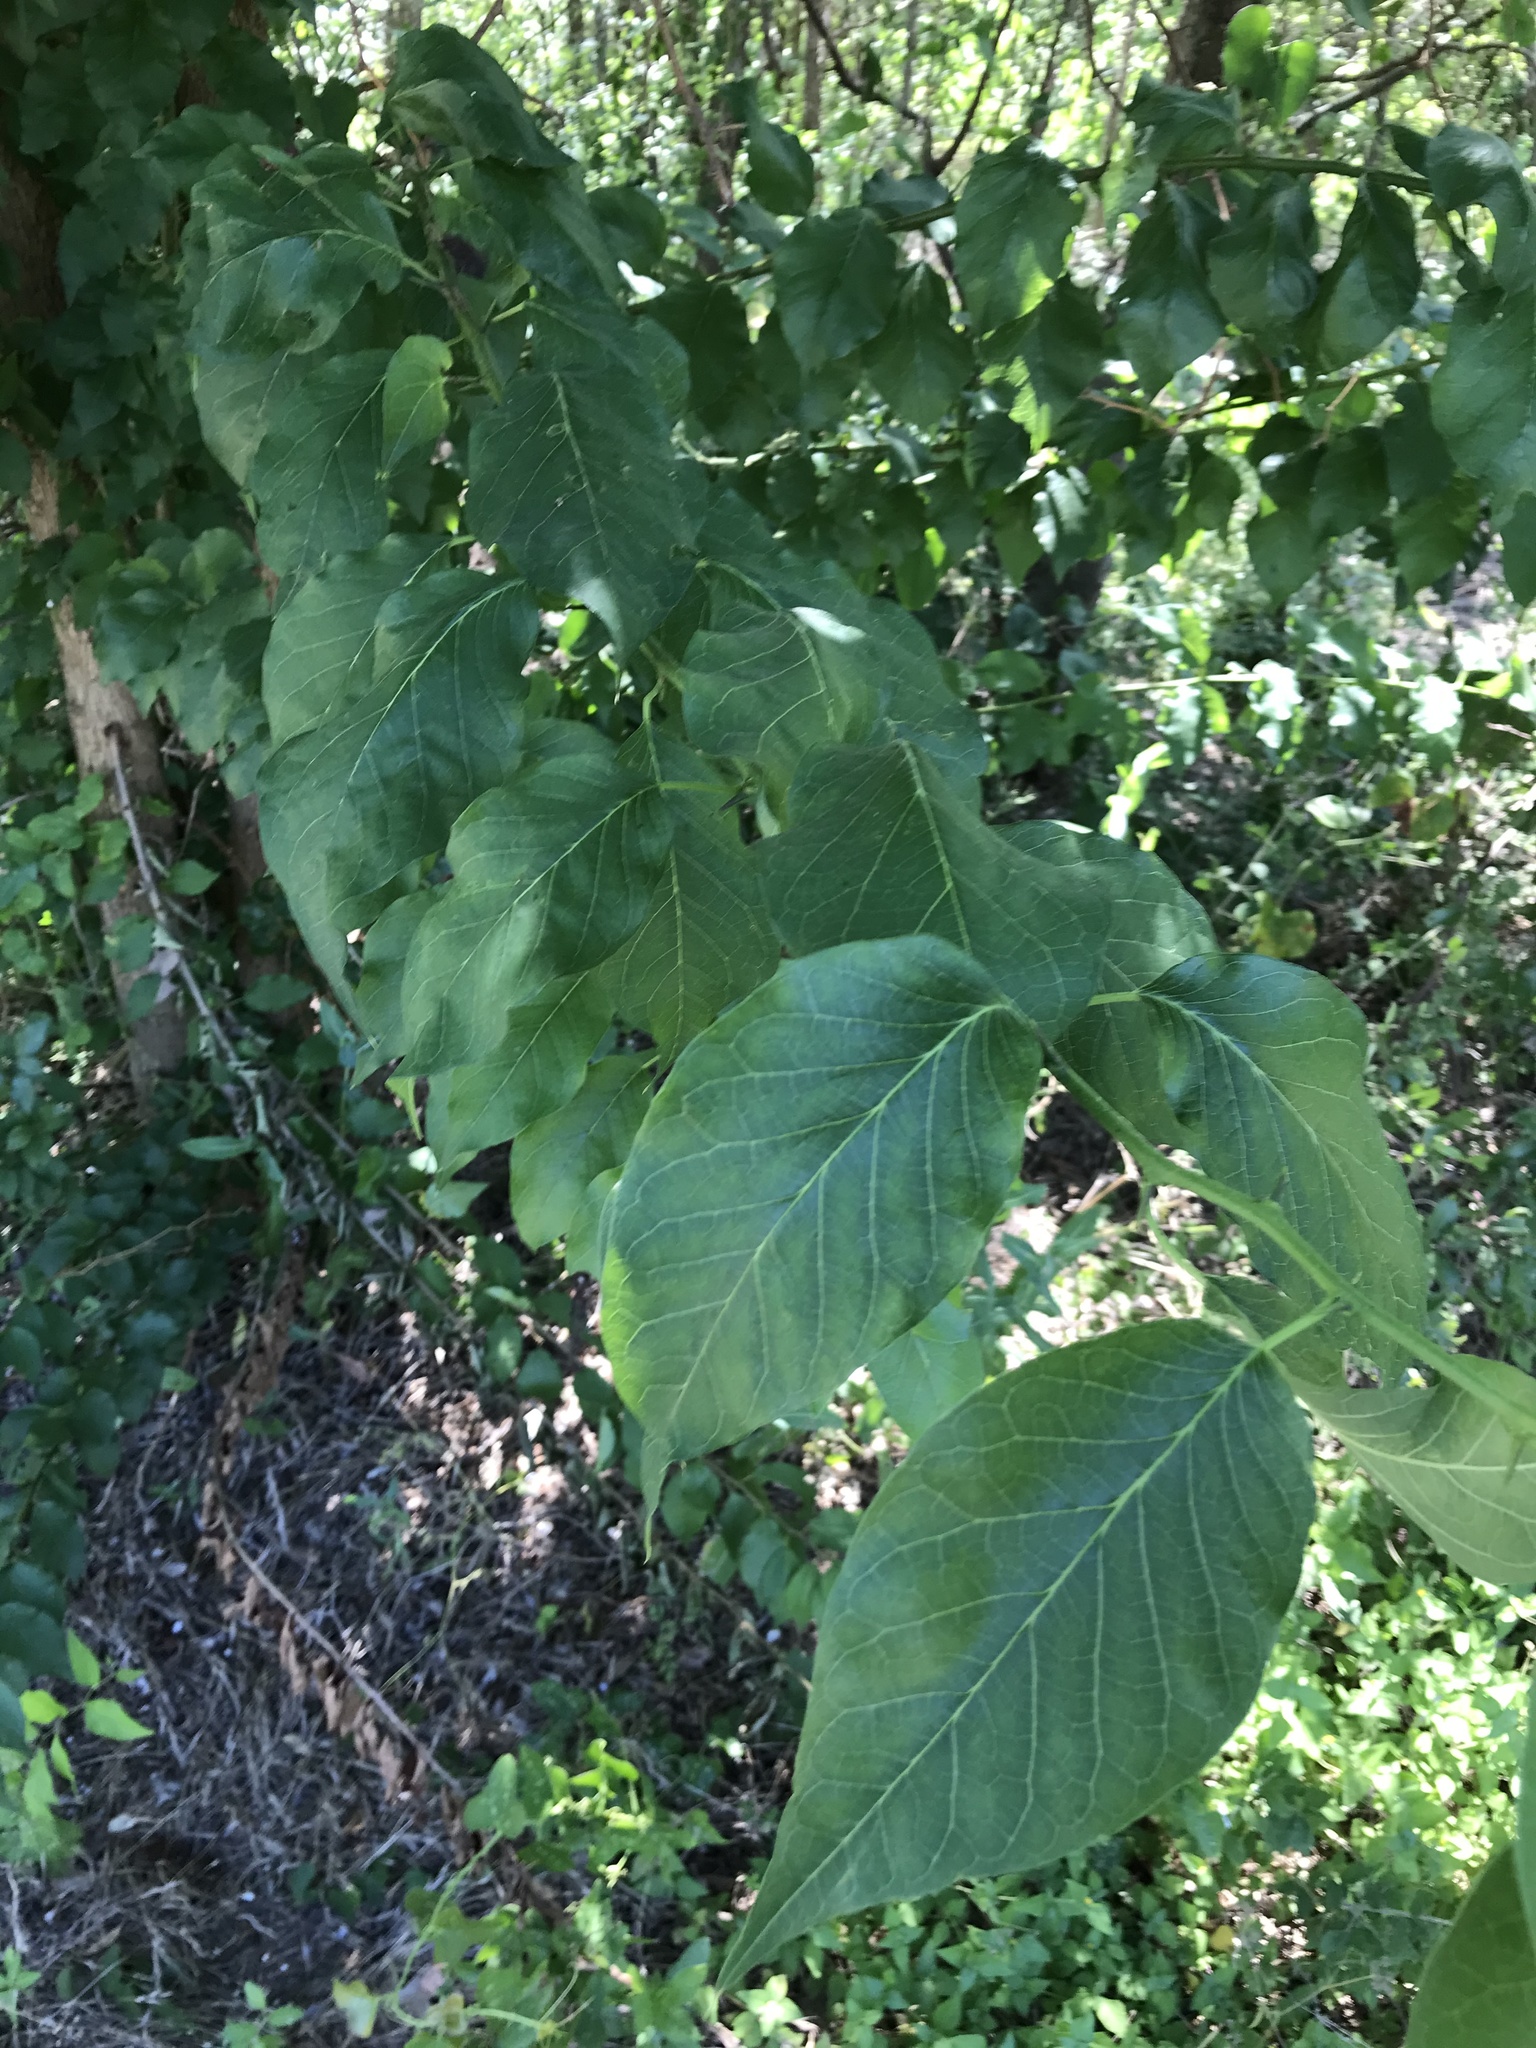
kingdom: Plantae
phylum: Tracheophyta
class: Magnoliopsida
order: Rosales
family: Moraceae
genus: Maclura
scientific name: Maclura pomifera
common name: Osage-orange
